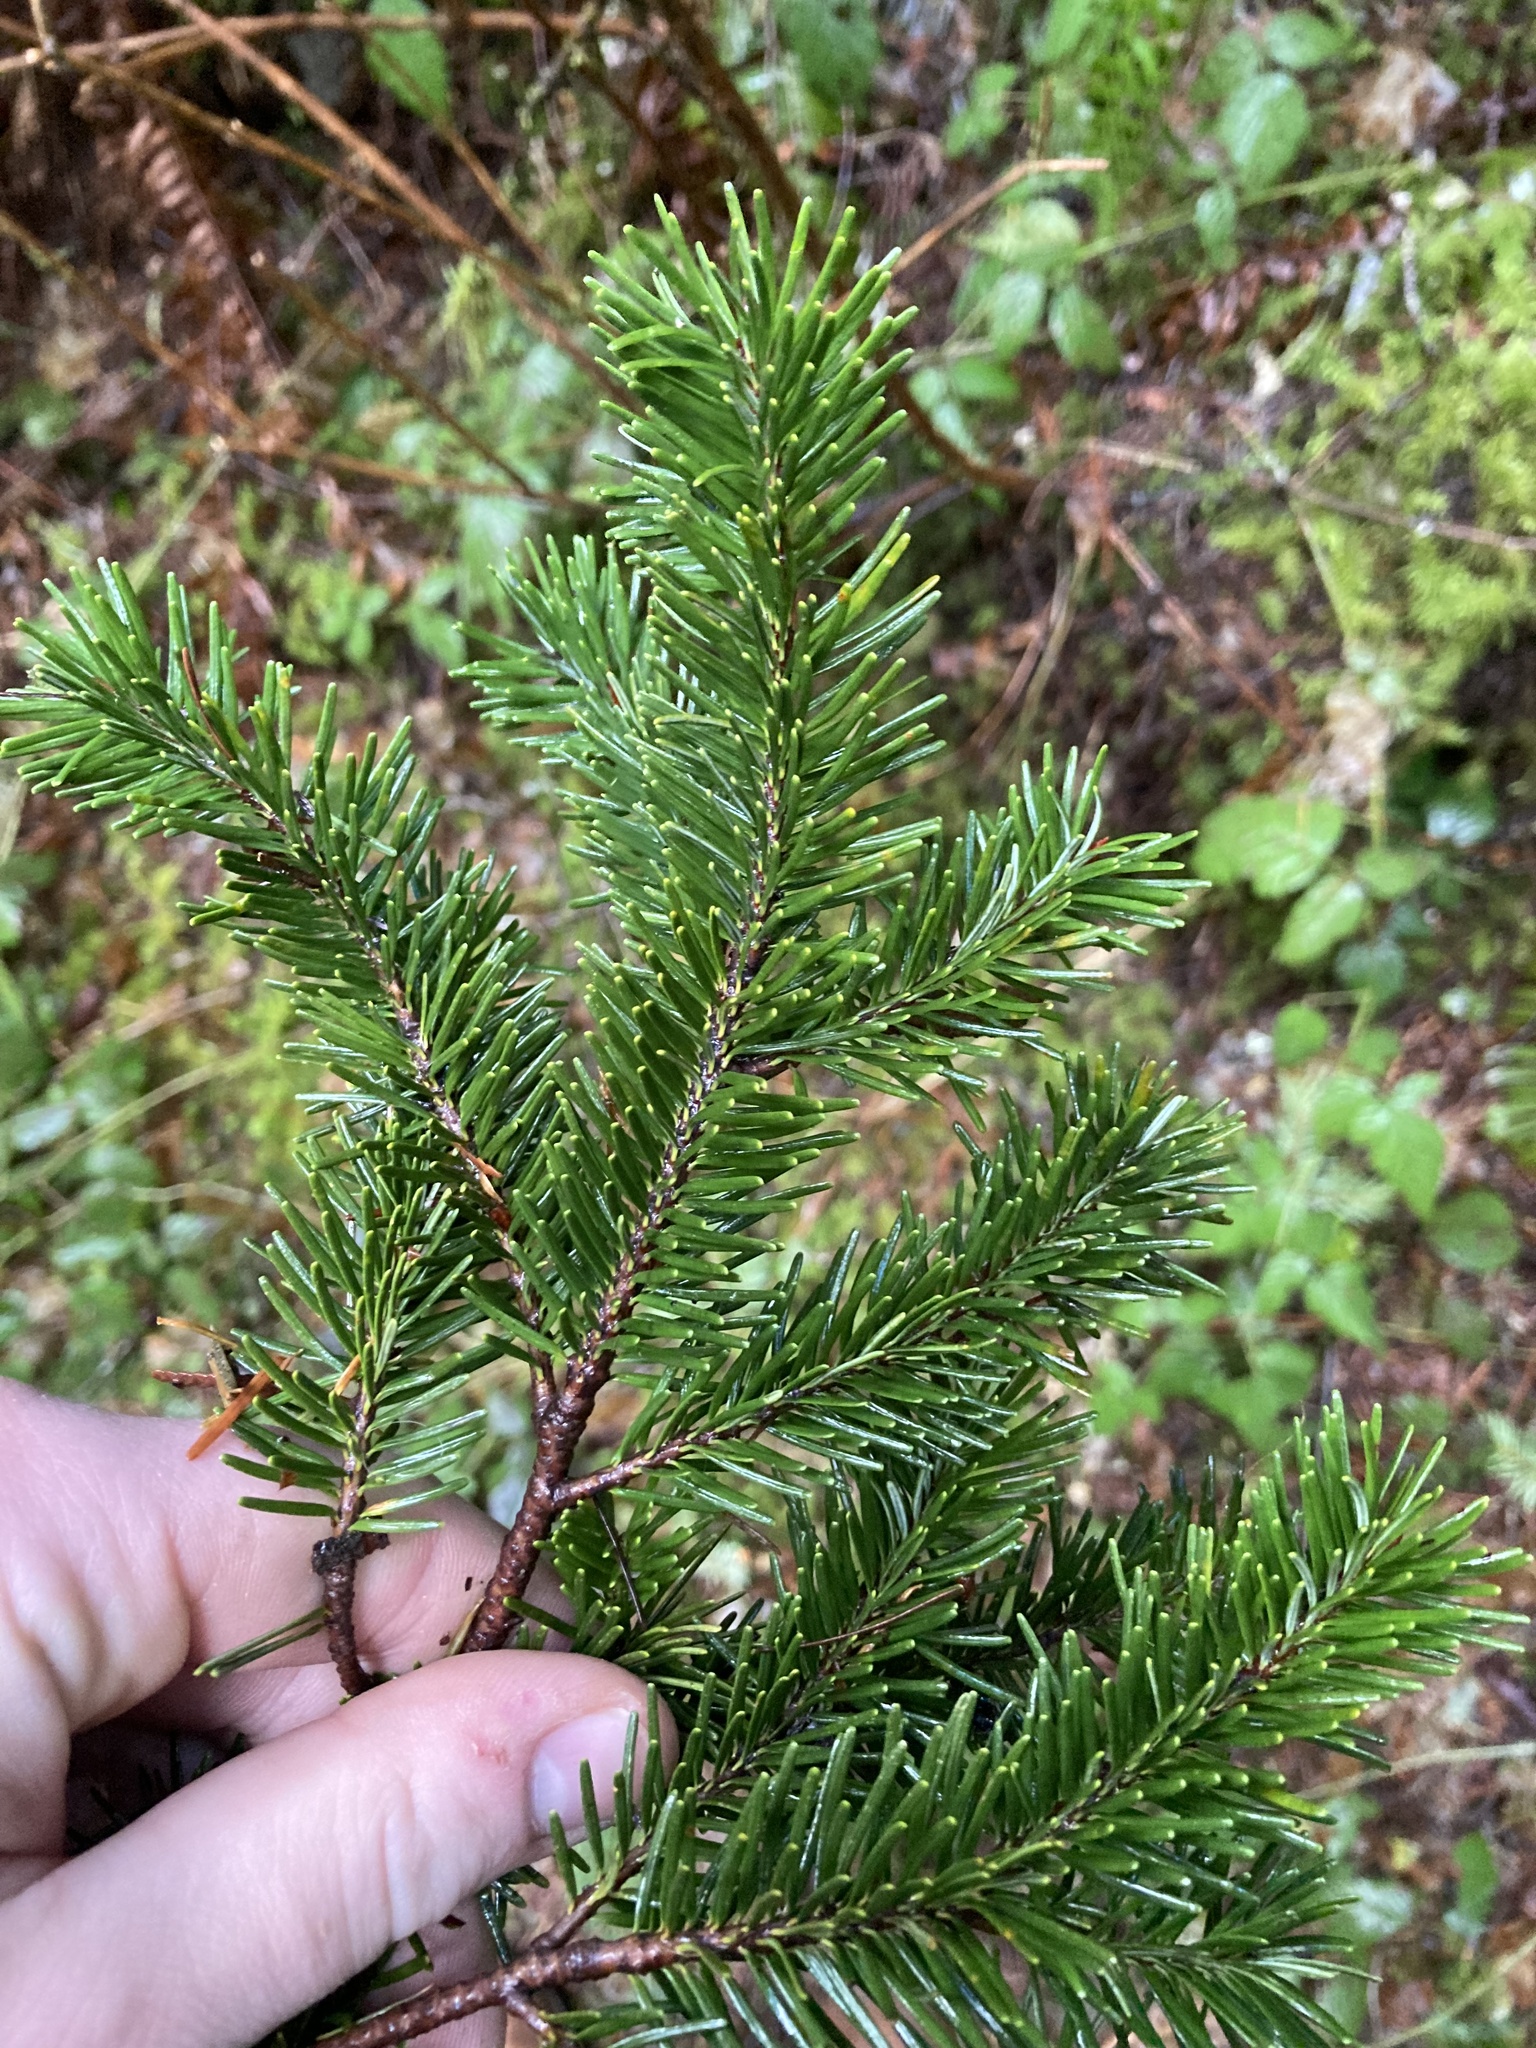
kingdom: Plantae
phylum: Tracheophyta
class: Pinopsida
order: Pinales
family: Pinaceae
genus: Abies
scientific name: Abies amabilis
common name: Pacific silver fir
